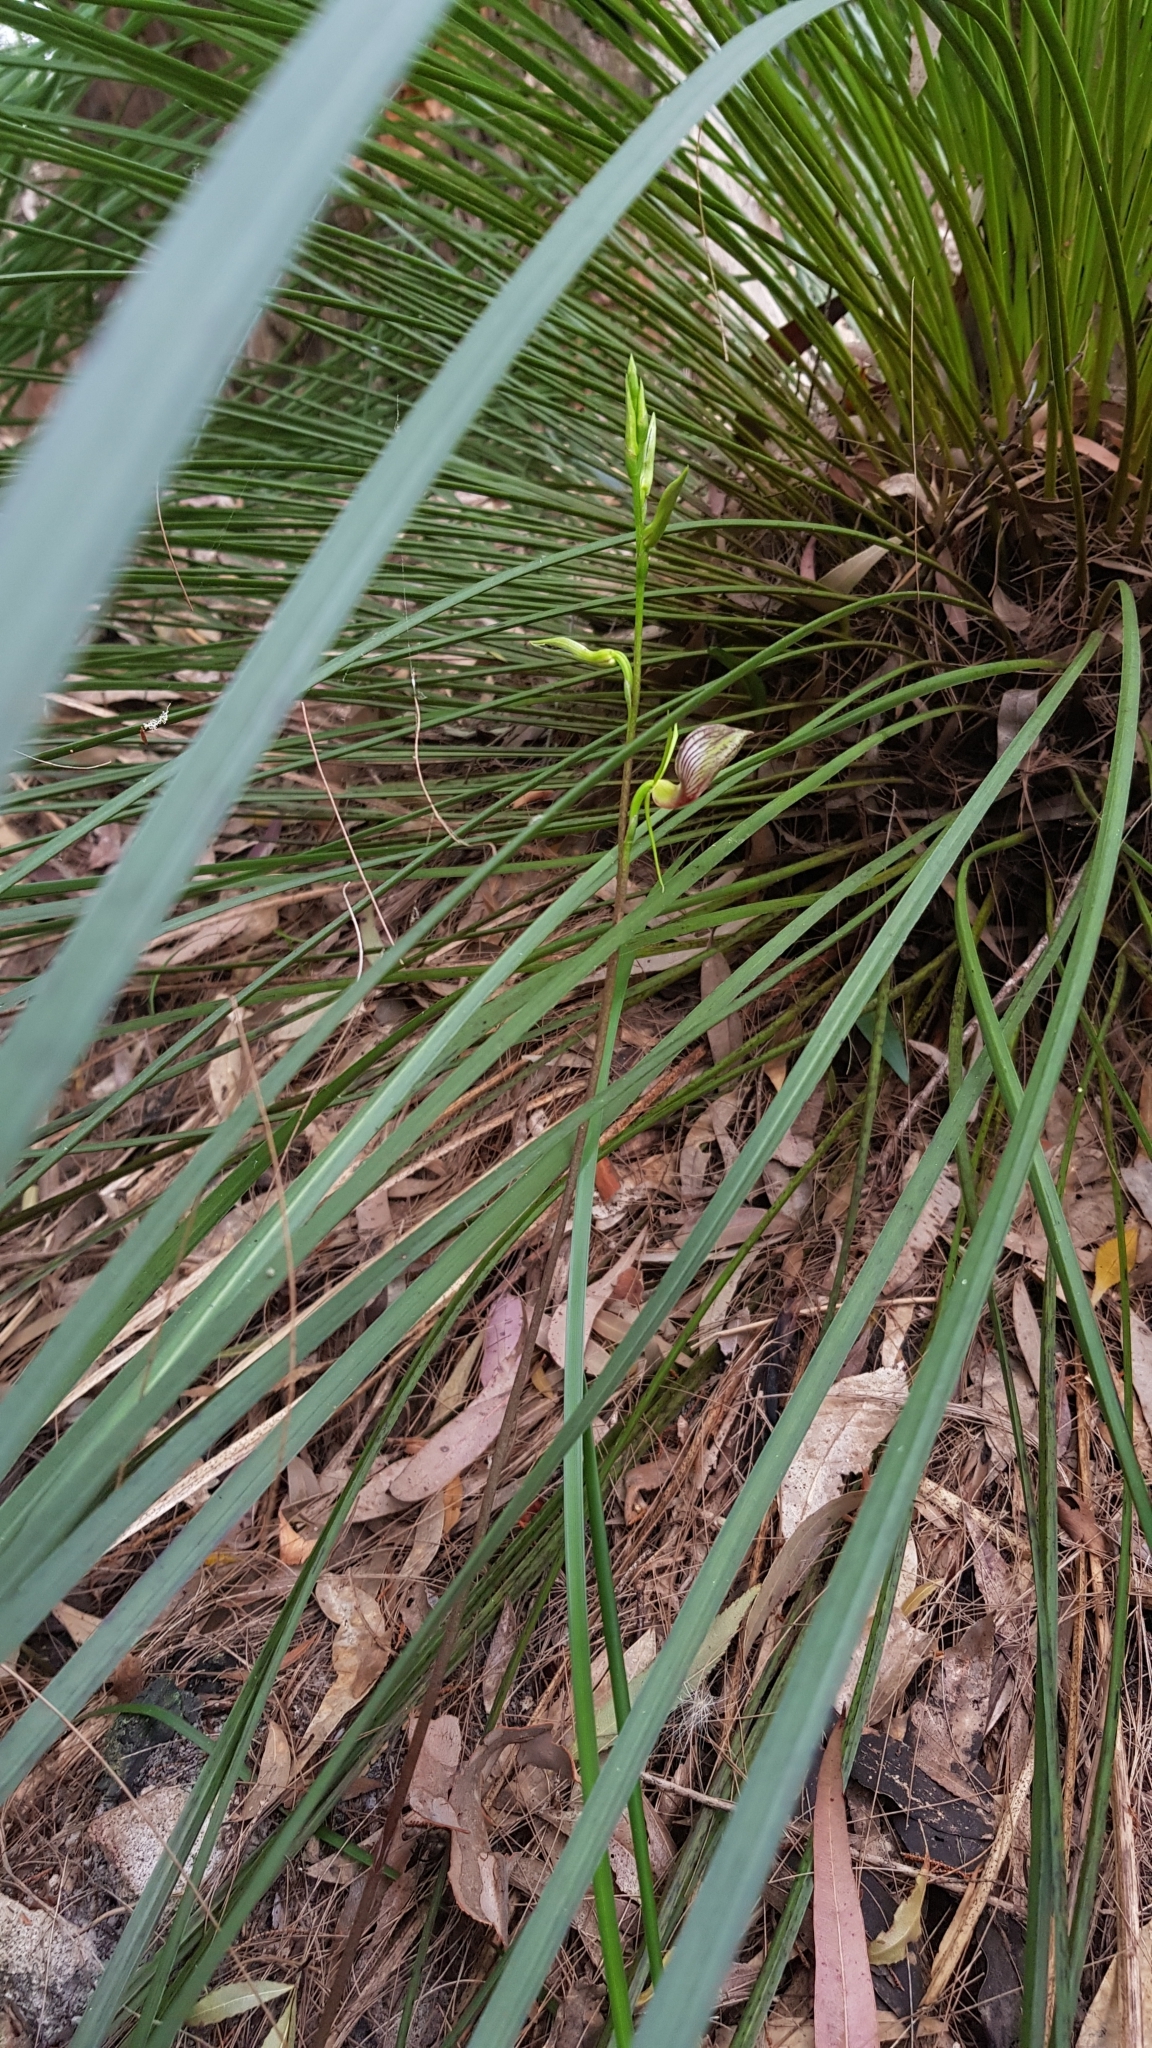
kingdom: Plantae
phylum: Tracheophyta
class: Liliopsida
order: Asparagales
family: Orchidaceae
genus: Cryptostylis
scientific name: Cryptostylis erecta
